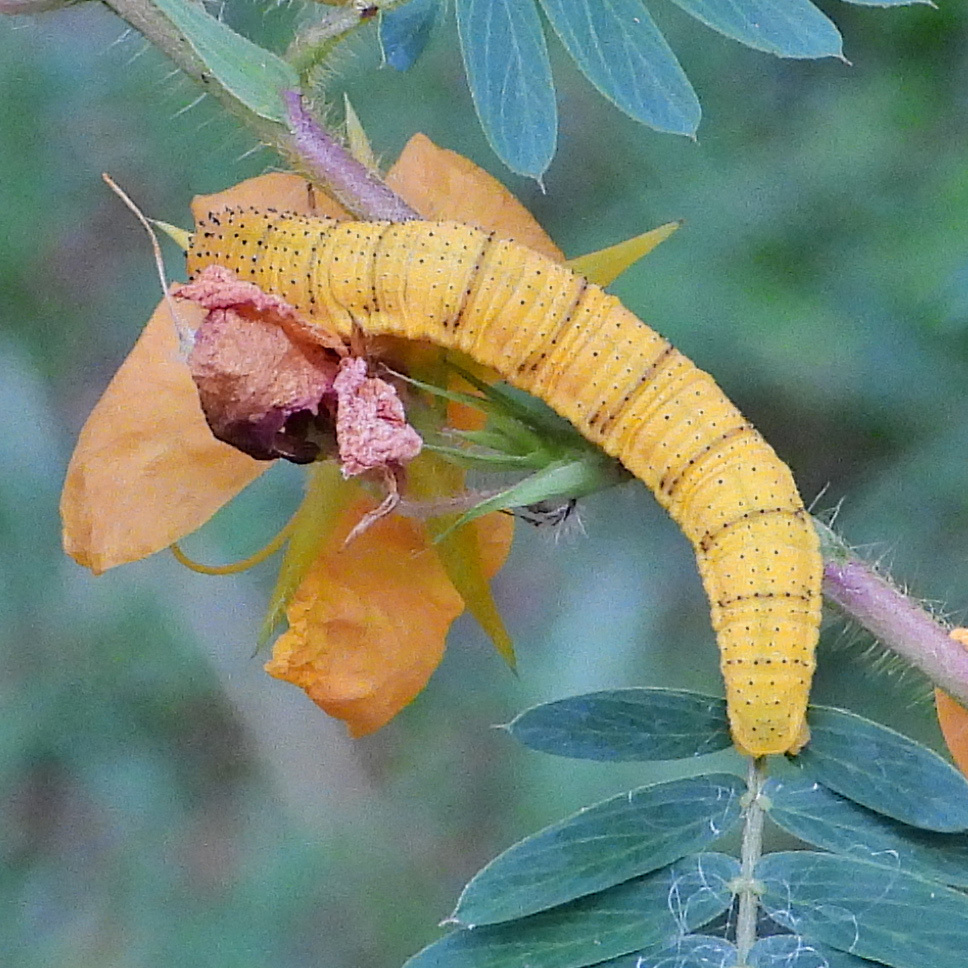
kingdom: Animalia
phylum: Arthropoda
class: Insecta
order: Lepidoptera
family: Pieridae
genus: Phoebis
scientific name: Phoebis sennae
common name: Cloudless sulphur
